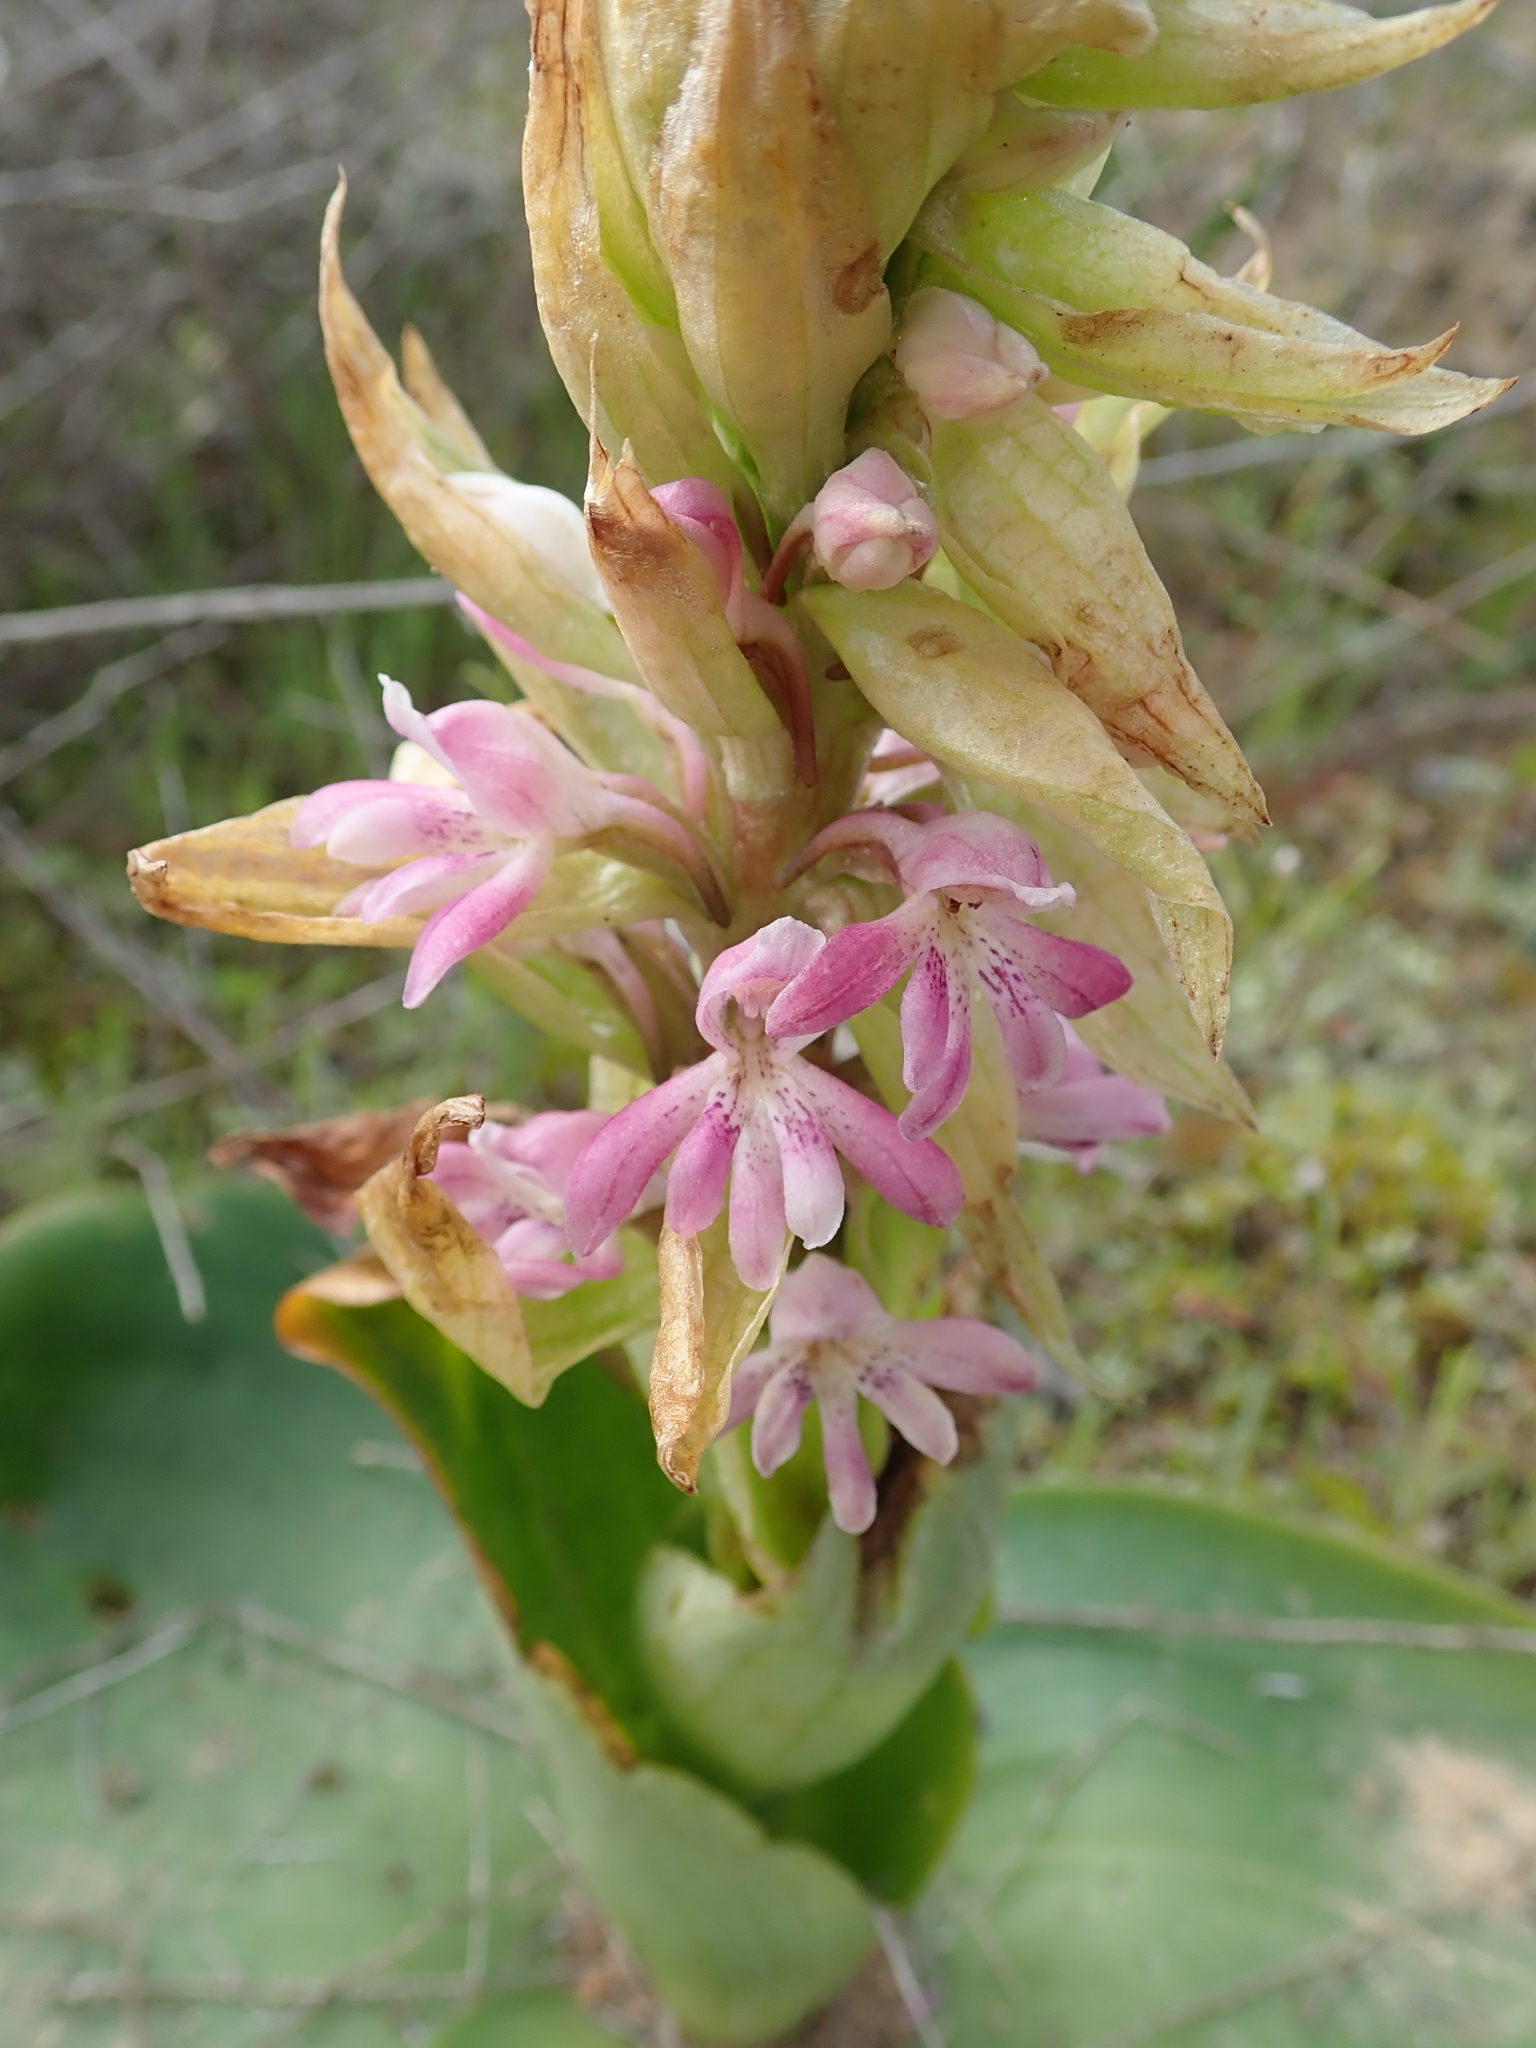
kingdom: Plantae
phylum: Tracheophyta
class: Liliopsida
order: Asparagales
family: Orchidaceae
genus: Satyrium
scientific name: Satyrium erectum
